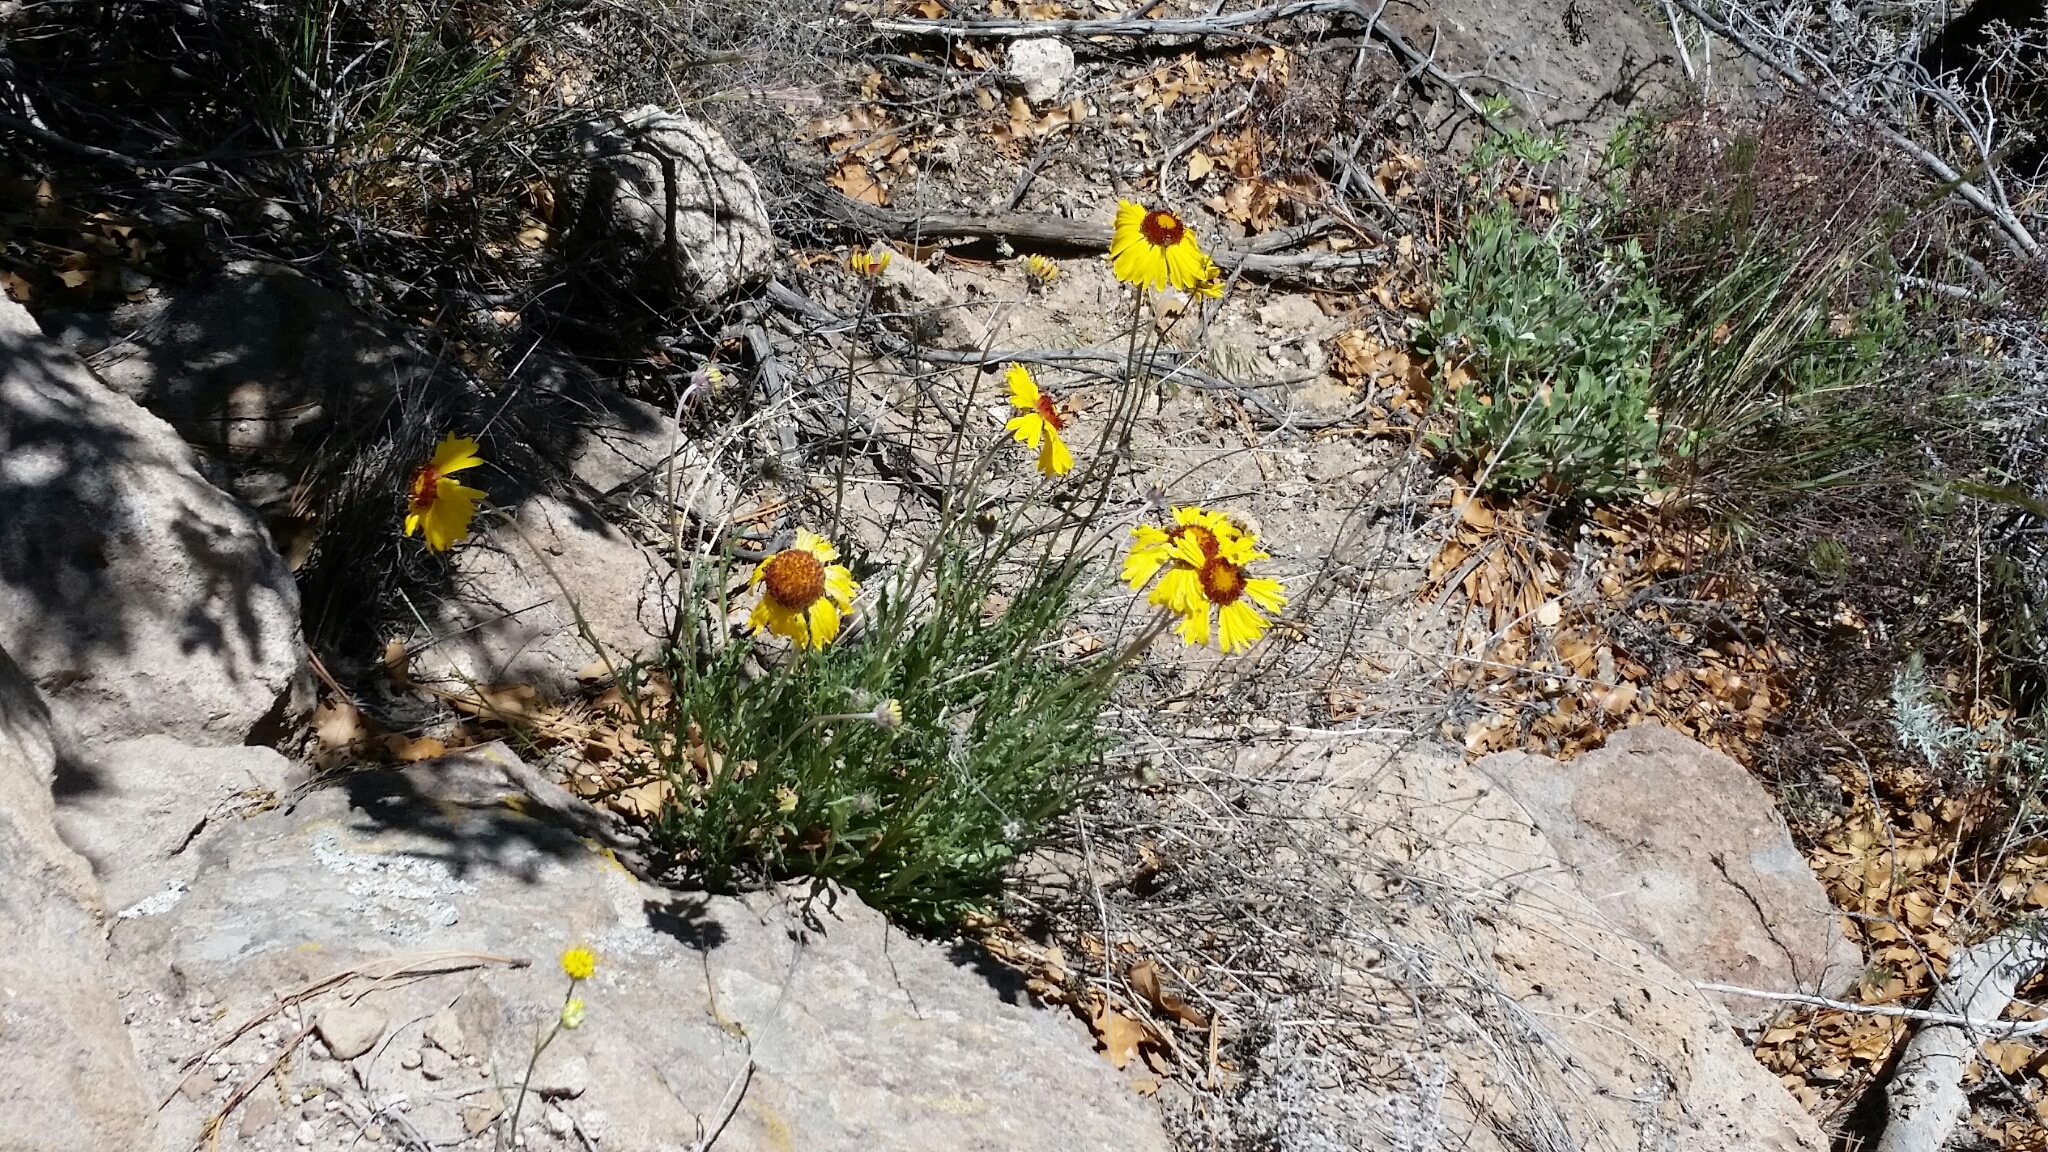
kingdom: Plantae
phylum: Tracheophyta
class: Magnoliopsida
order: Asterales
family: Asteraceae
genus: Gaillardia
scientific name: Gaillardia pinnatifida
